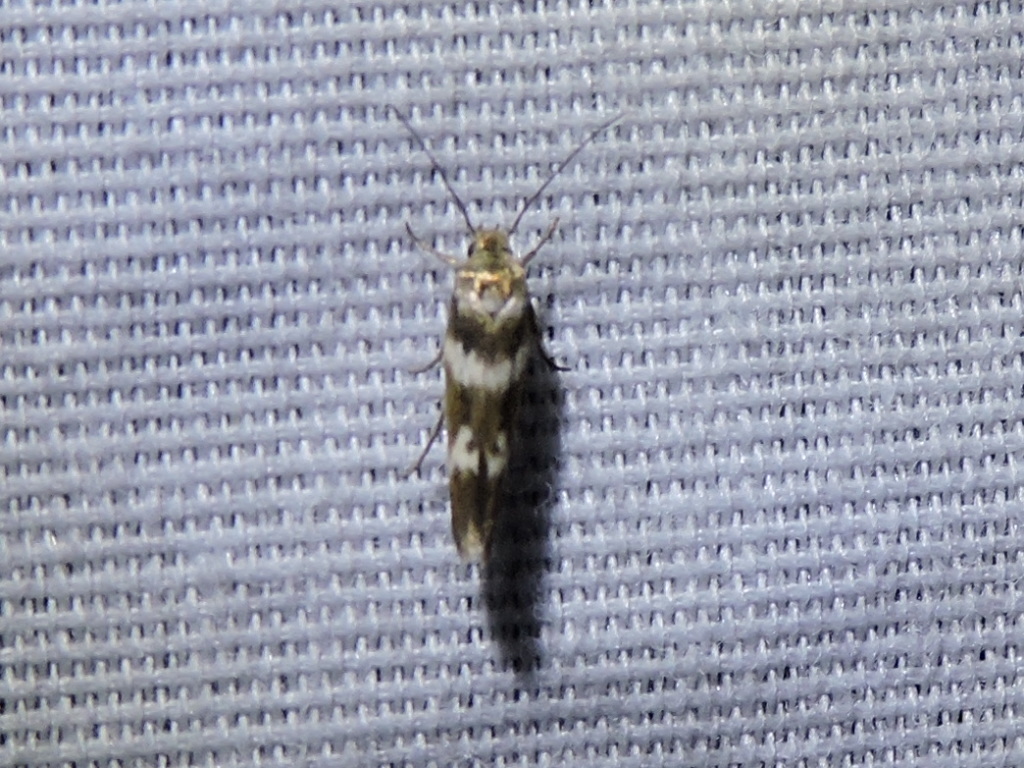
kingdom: Animalia
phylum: Arthropoda
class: Insecta
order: Lepidoptera
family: Scythrididae
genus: Scythris
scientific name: Scythris trivinctella
